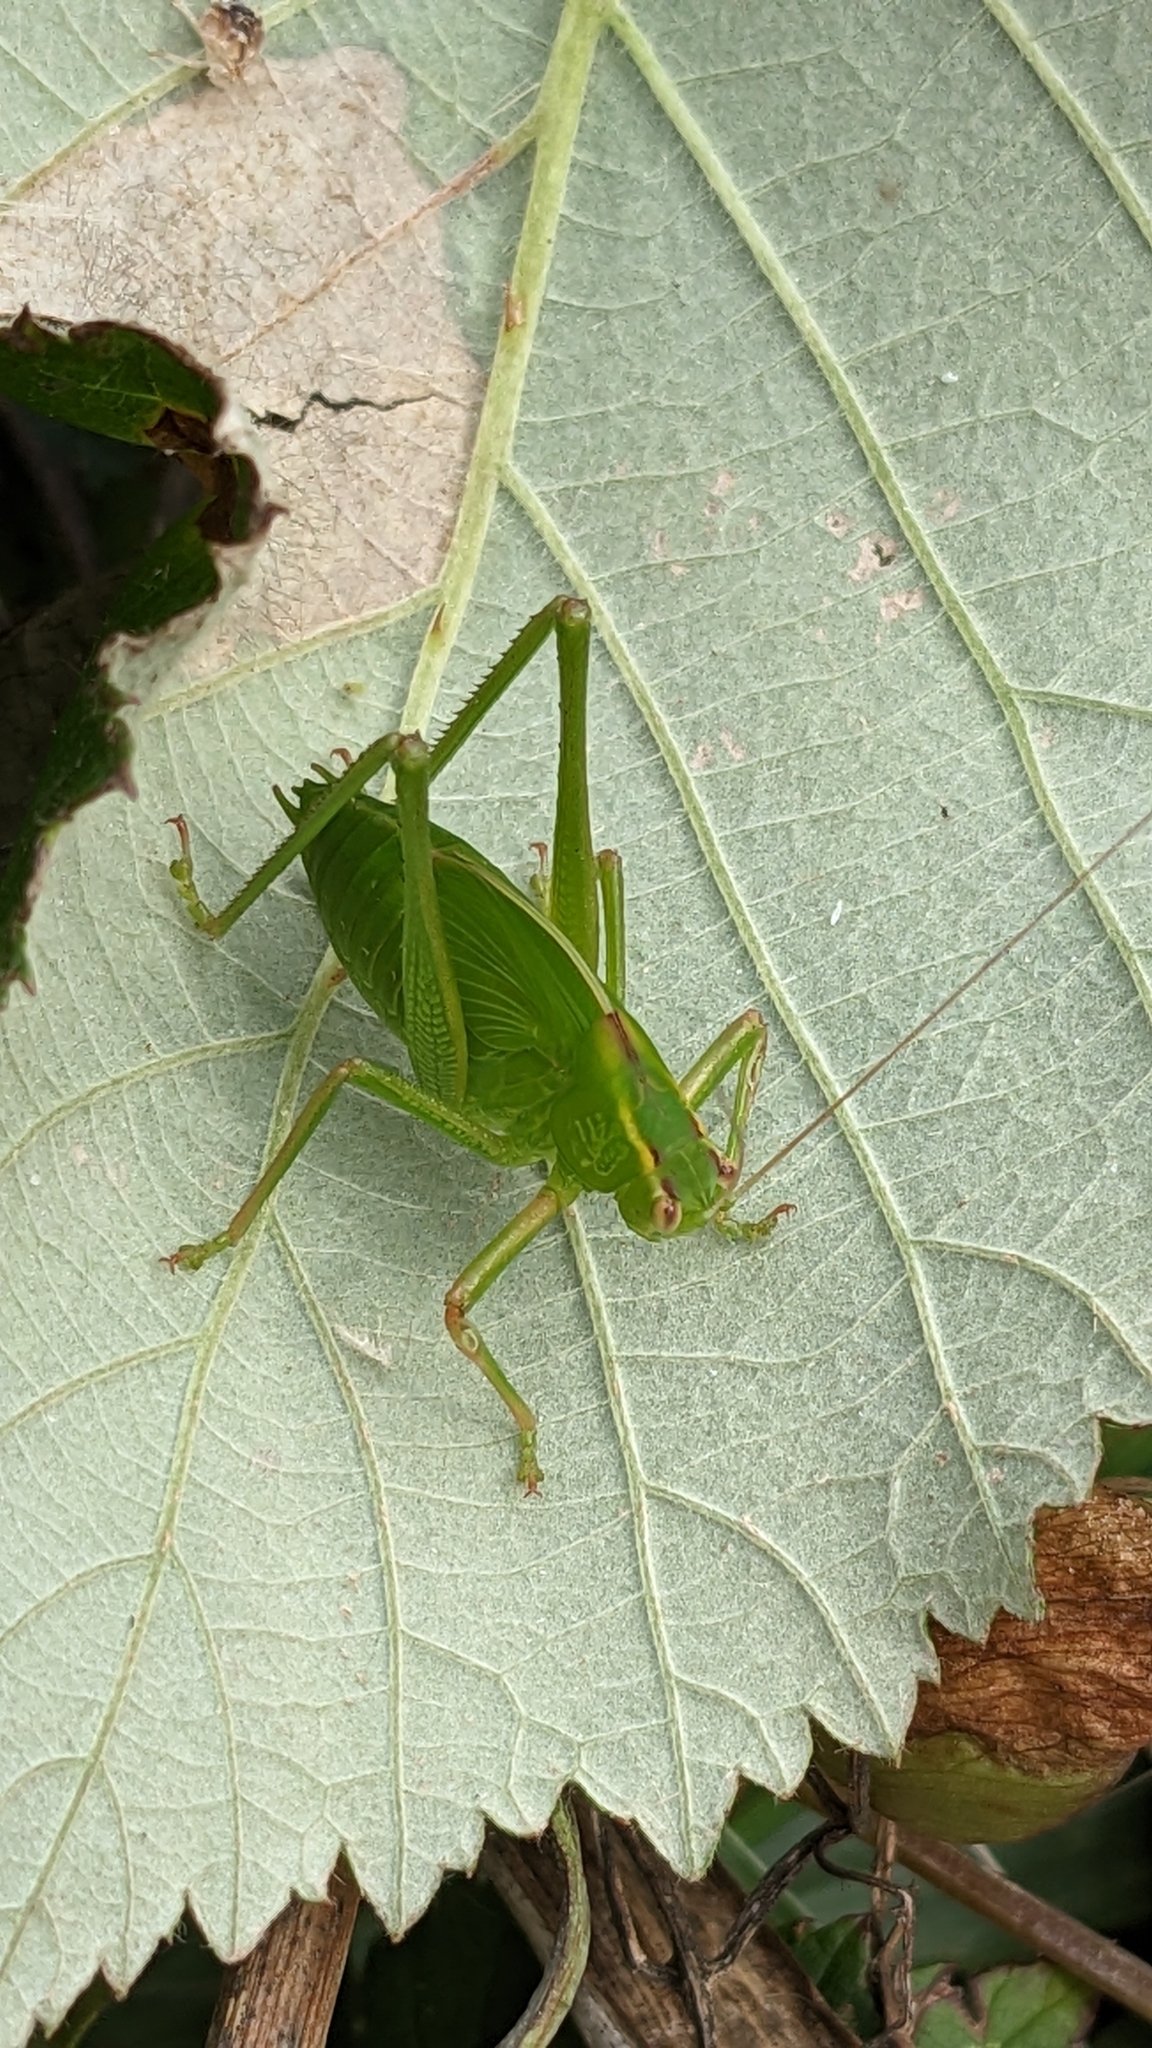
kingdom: Animalia
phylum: Arthropoda
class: Insecta
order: Orthoptera
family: Tettigoniidae
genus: Caedicia
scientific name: Caedicia simplex
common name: Common garden katydid
